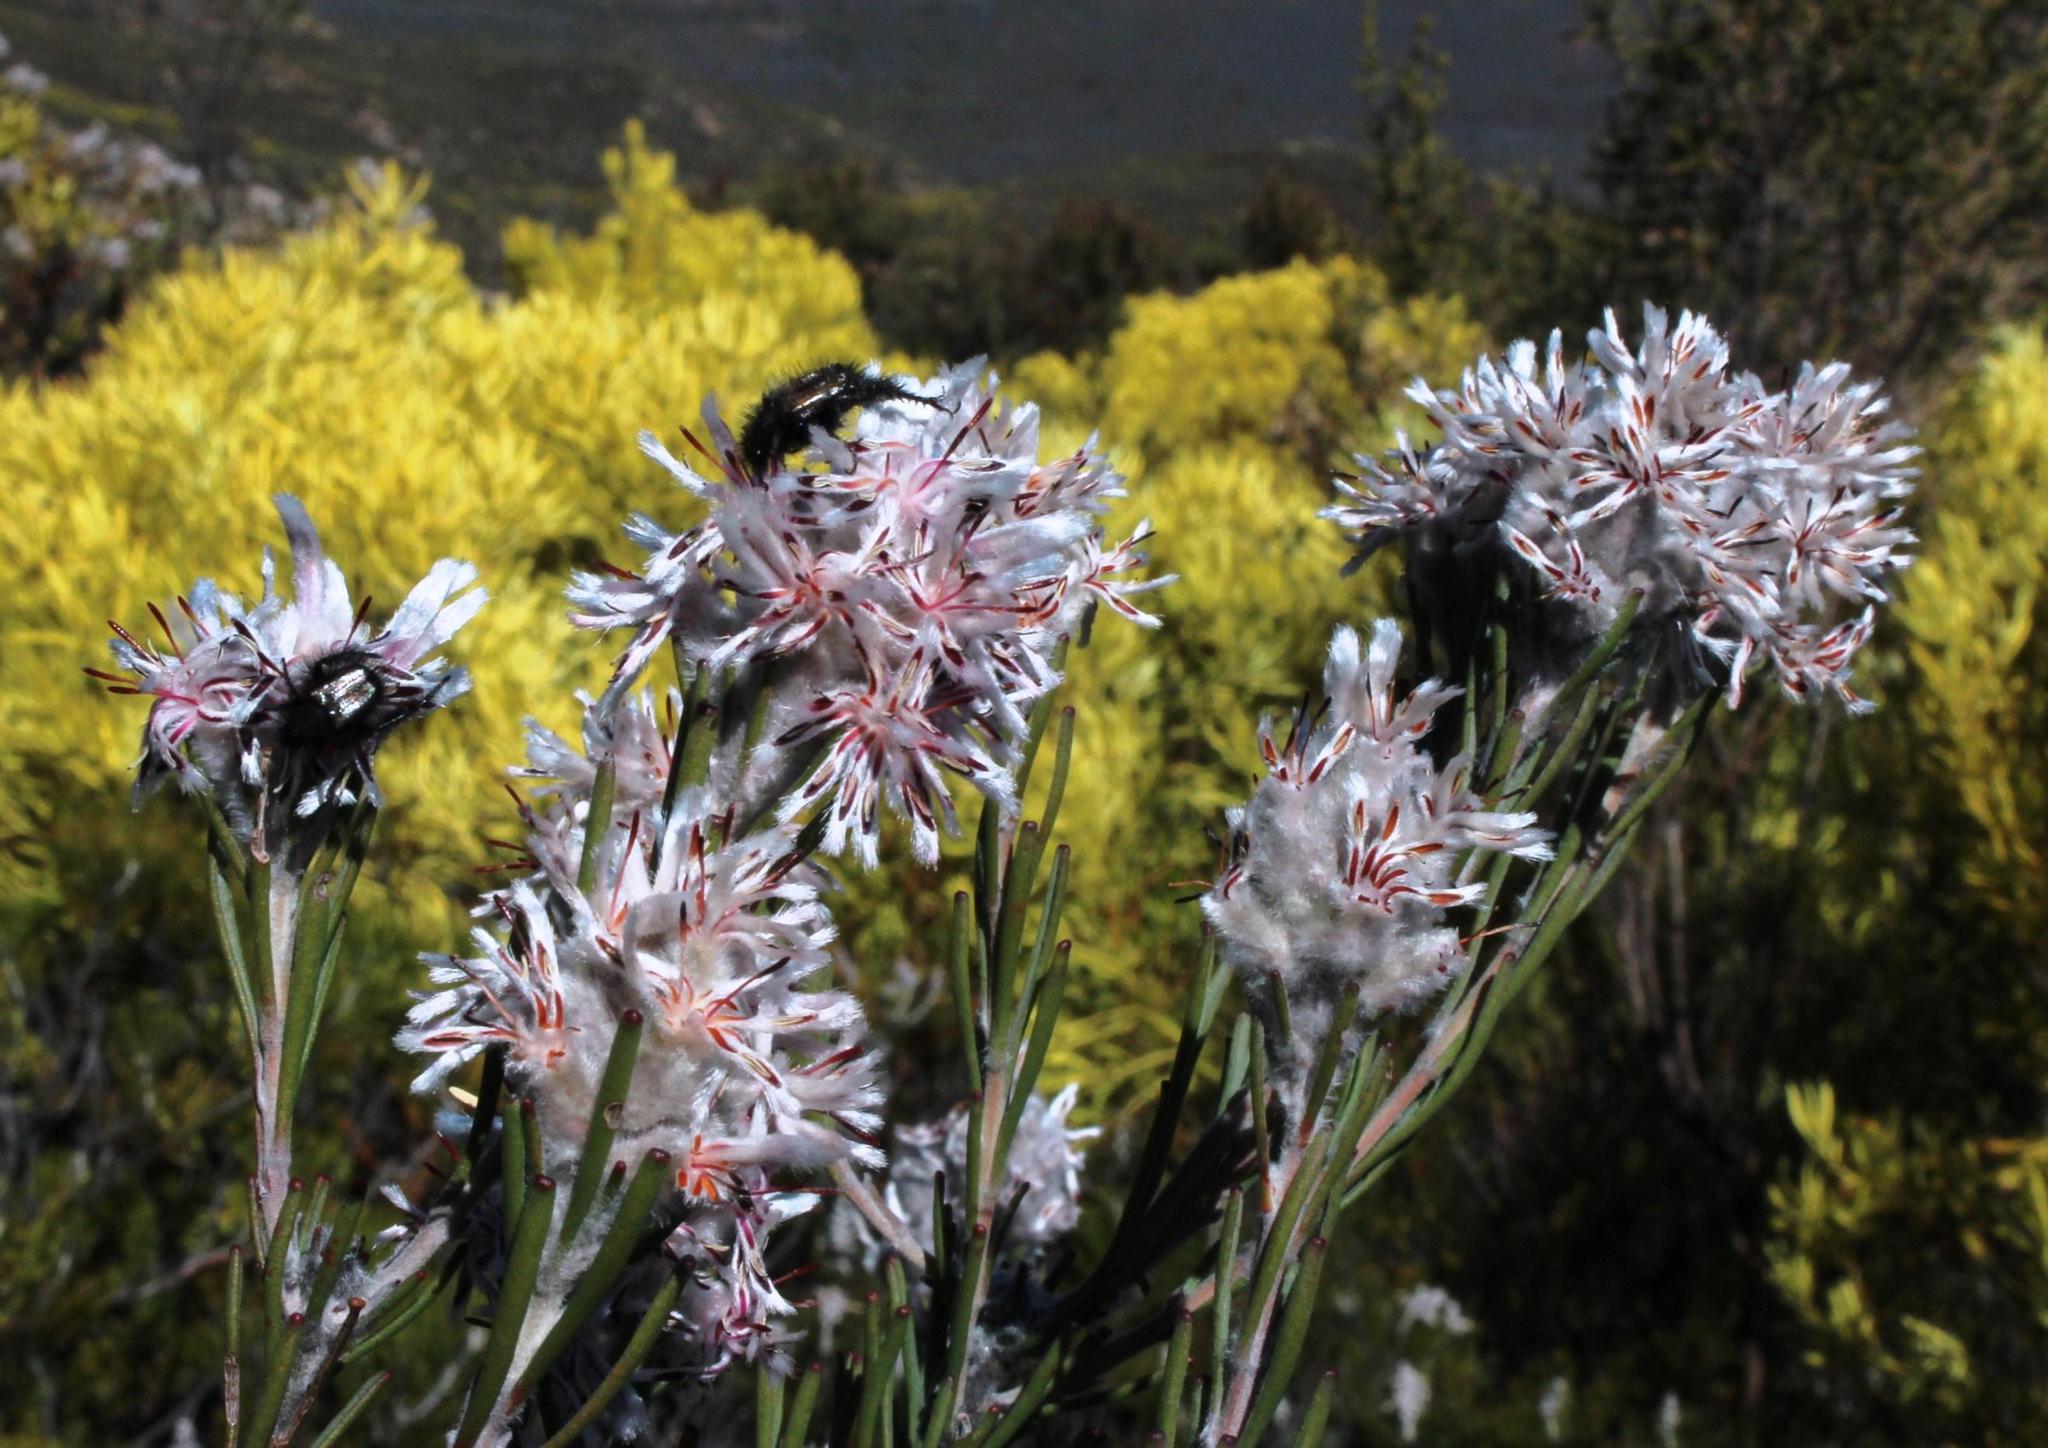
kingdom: Plantae
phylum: Tracheophyta
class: Magnoliopsida
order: Proteales
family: Proteaceae
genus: Paranomus
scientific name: Paranomus dregei
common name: Scented sceptre
